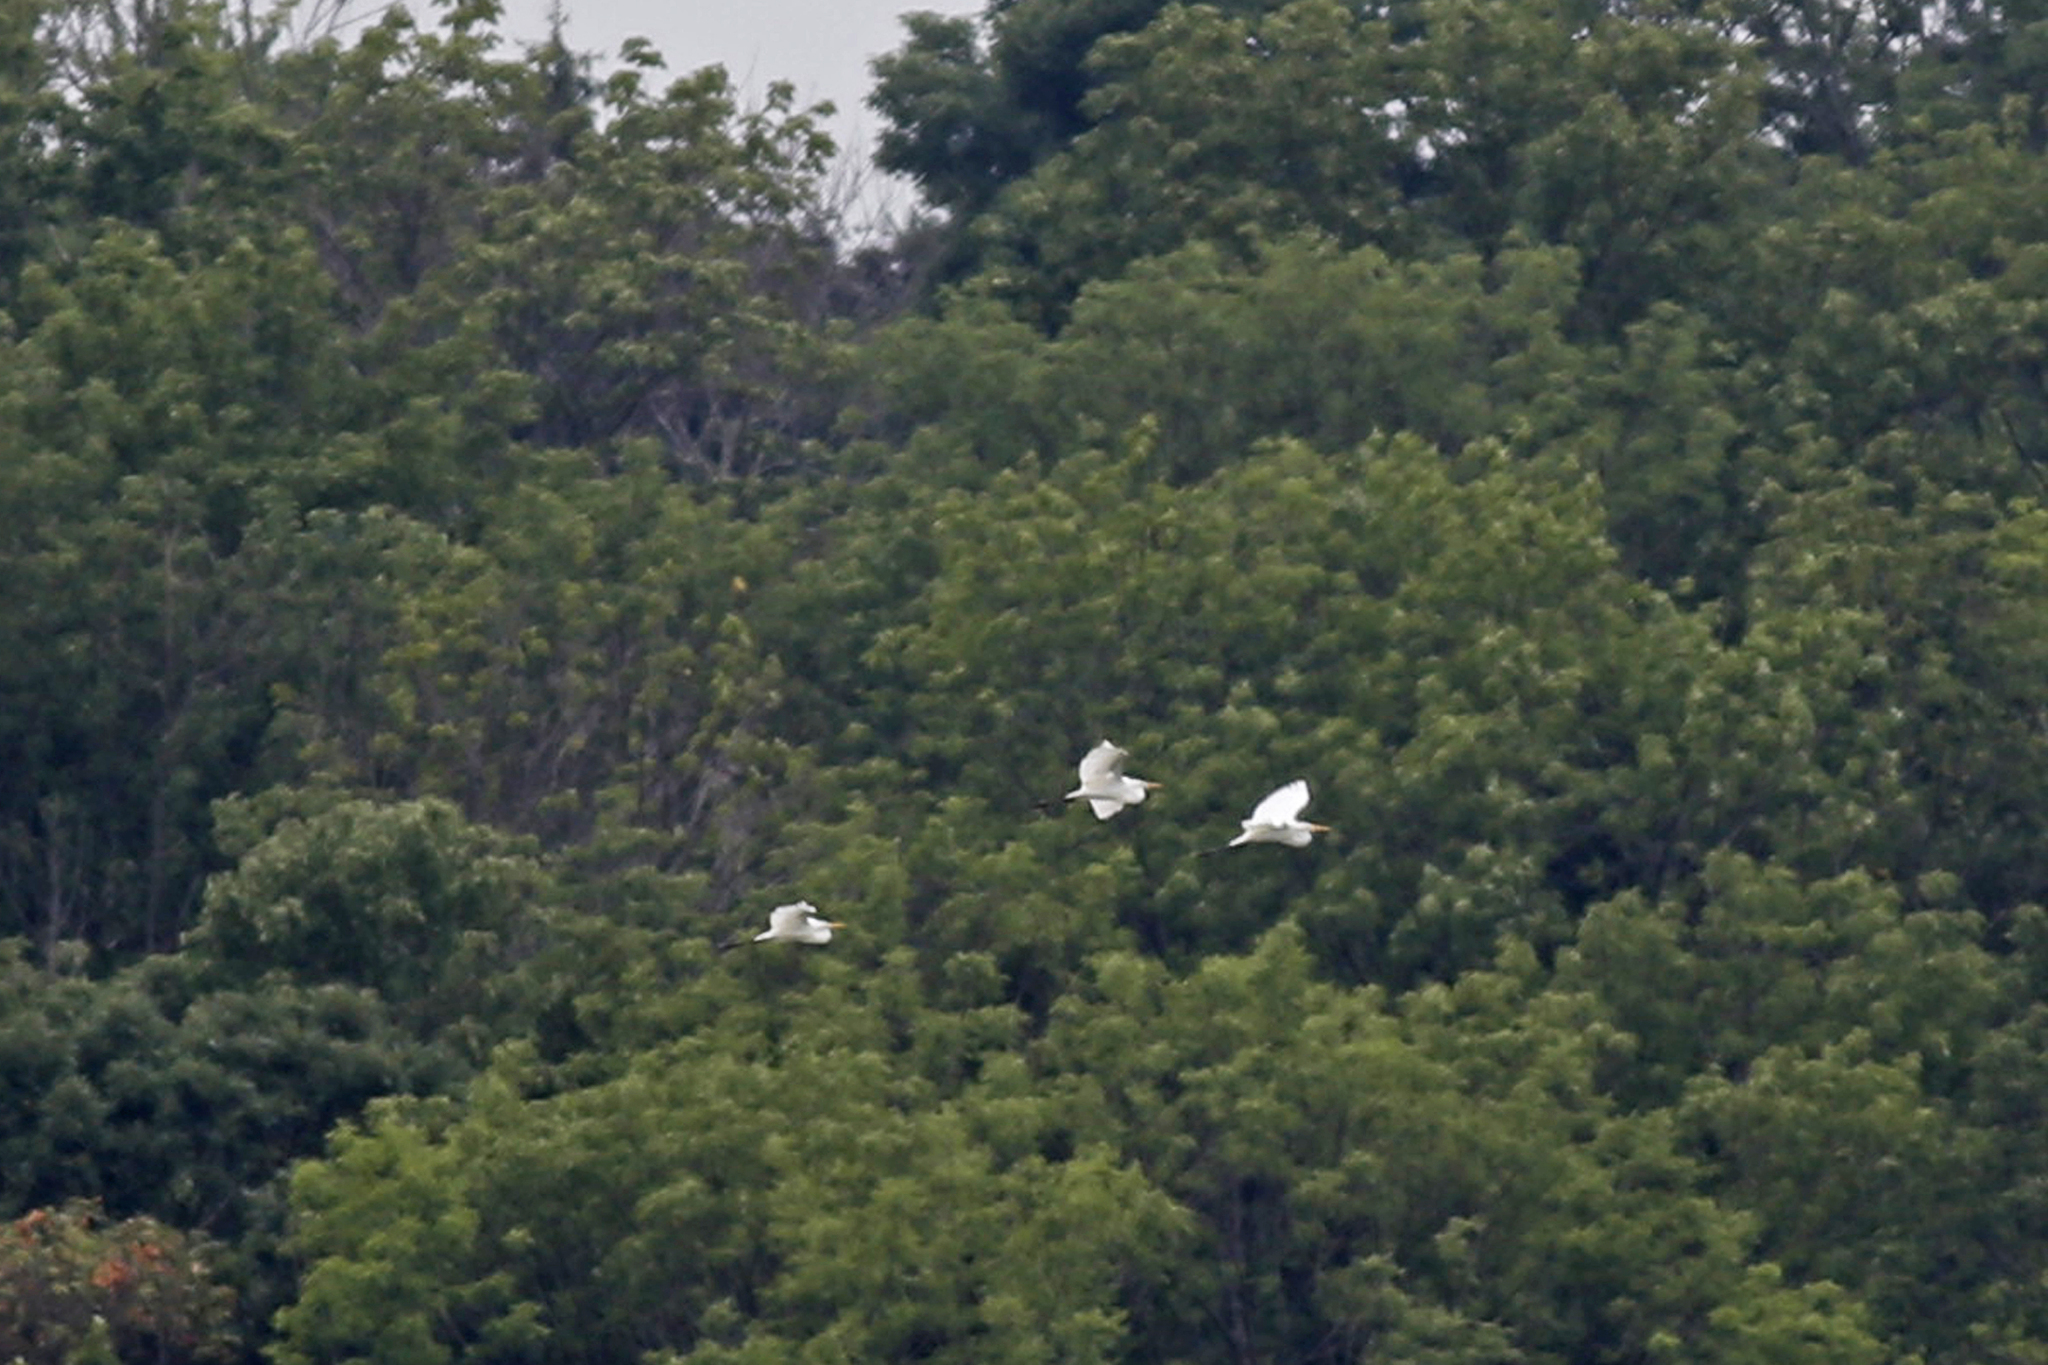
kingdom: Animalia
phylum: Chordata
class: Aves
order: Pelecaniformes
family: Ardeidae
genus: Ardea
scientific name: Ardea alba
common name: Great egret
